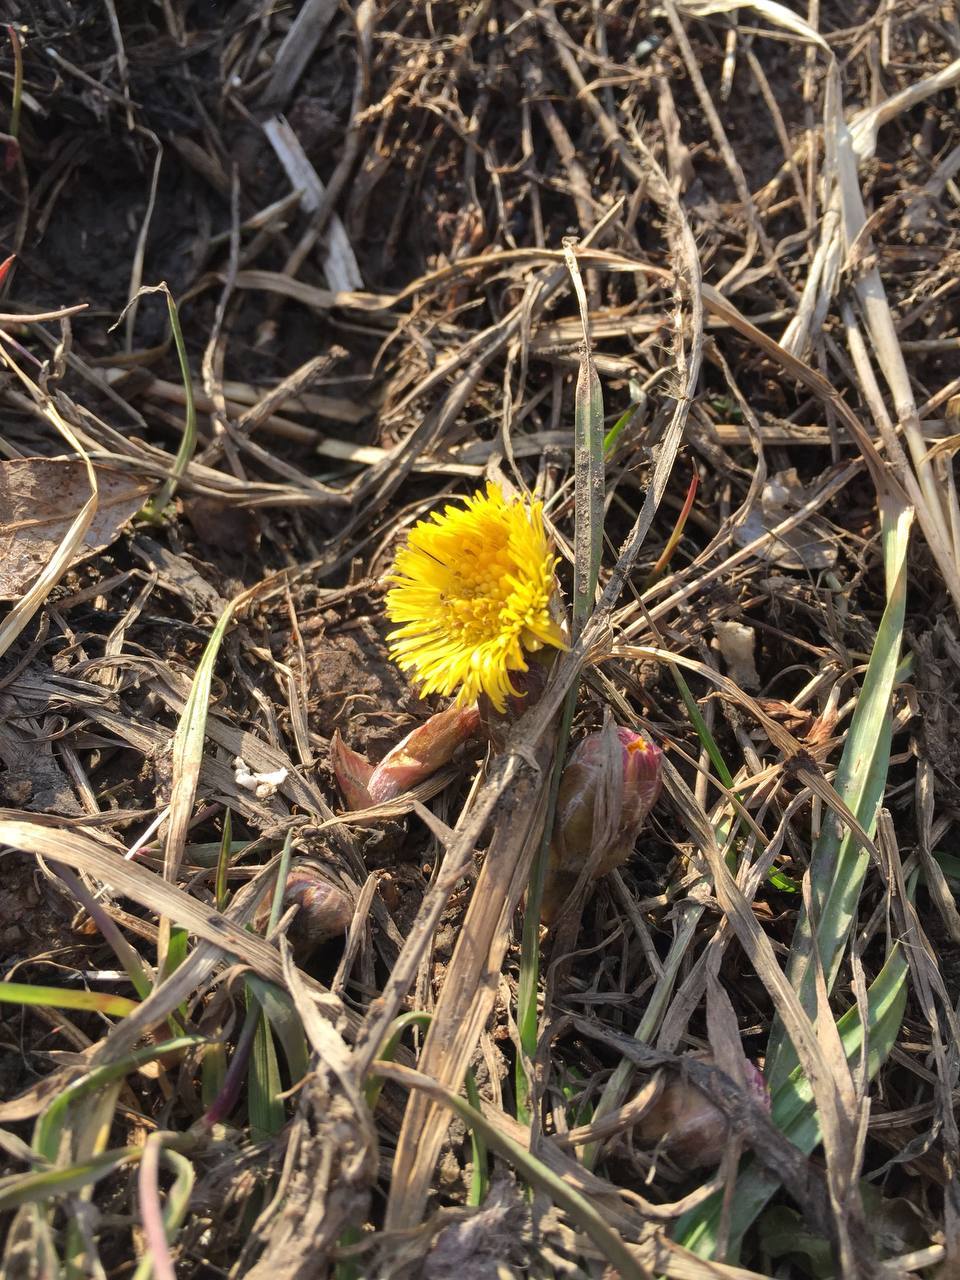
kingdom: Plantae
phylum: Tracheophyta
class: Magnoliopsida
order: Asterales
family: Asteraceae
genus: Tussilago
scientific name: Tussilago farfara
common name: Coltsfoot
